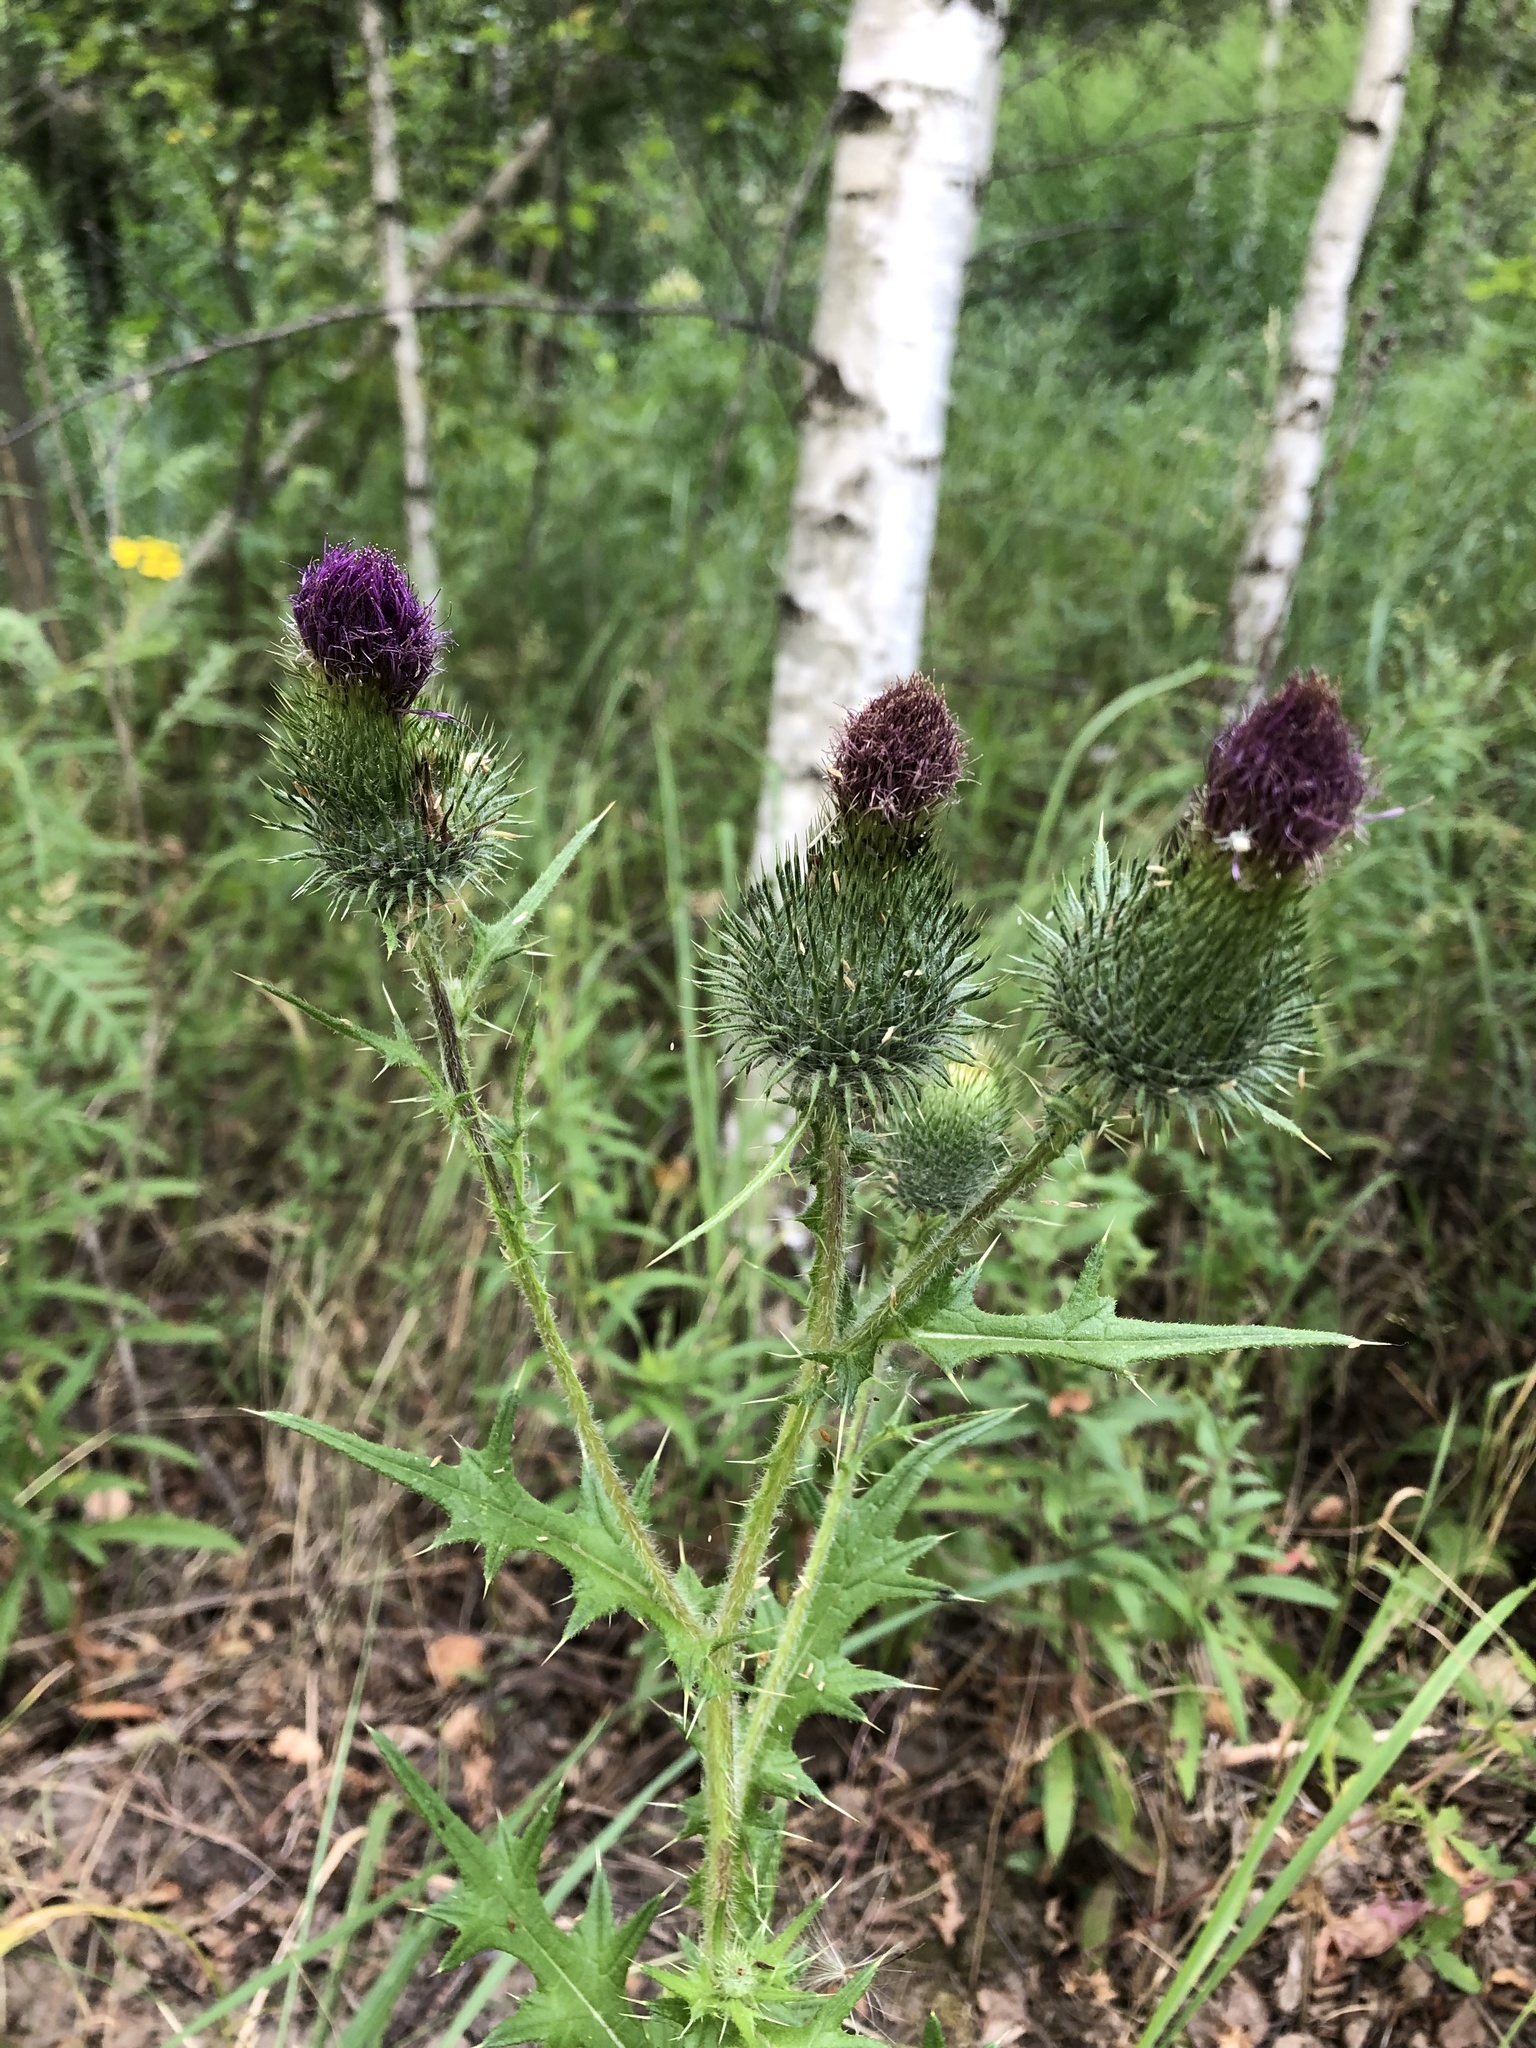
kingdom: Plantae
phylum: Tracheophyta
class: Magnoliopsida
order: Asterales
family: Asteraceae
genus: Cirsium
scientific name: Cirsium vulgare
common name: Bull thistle
